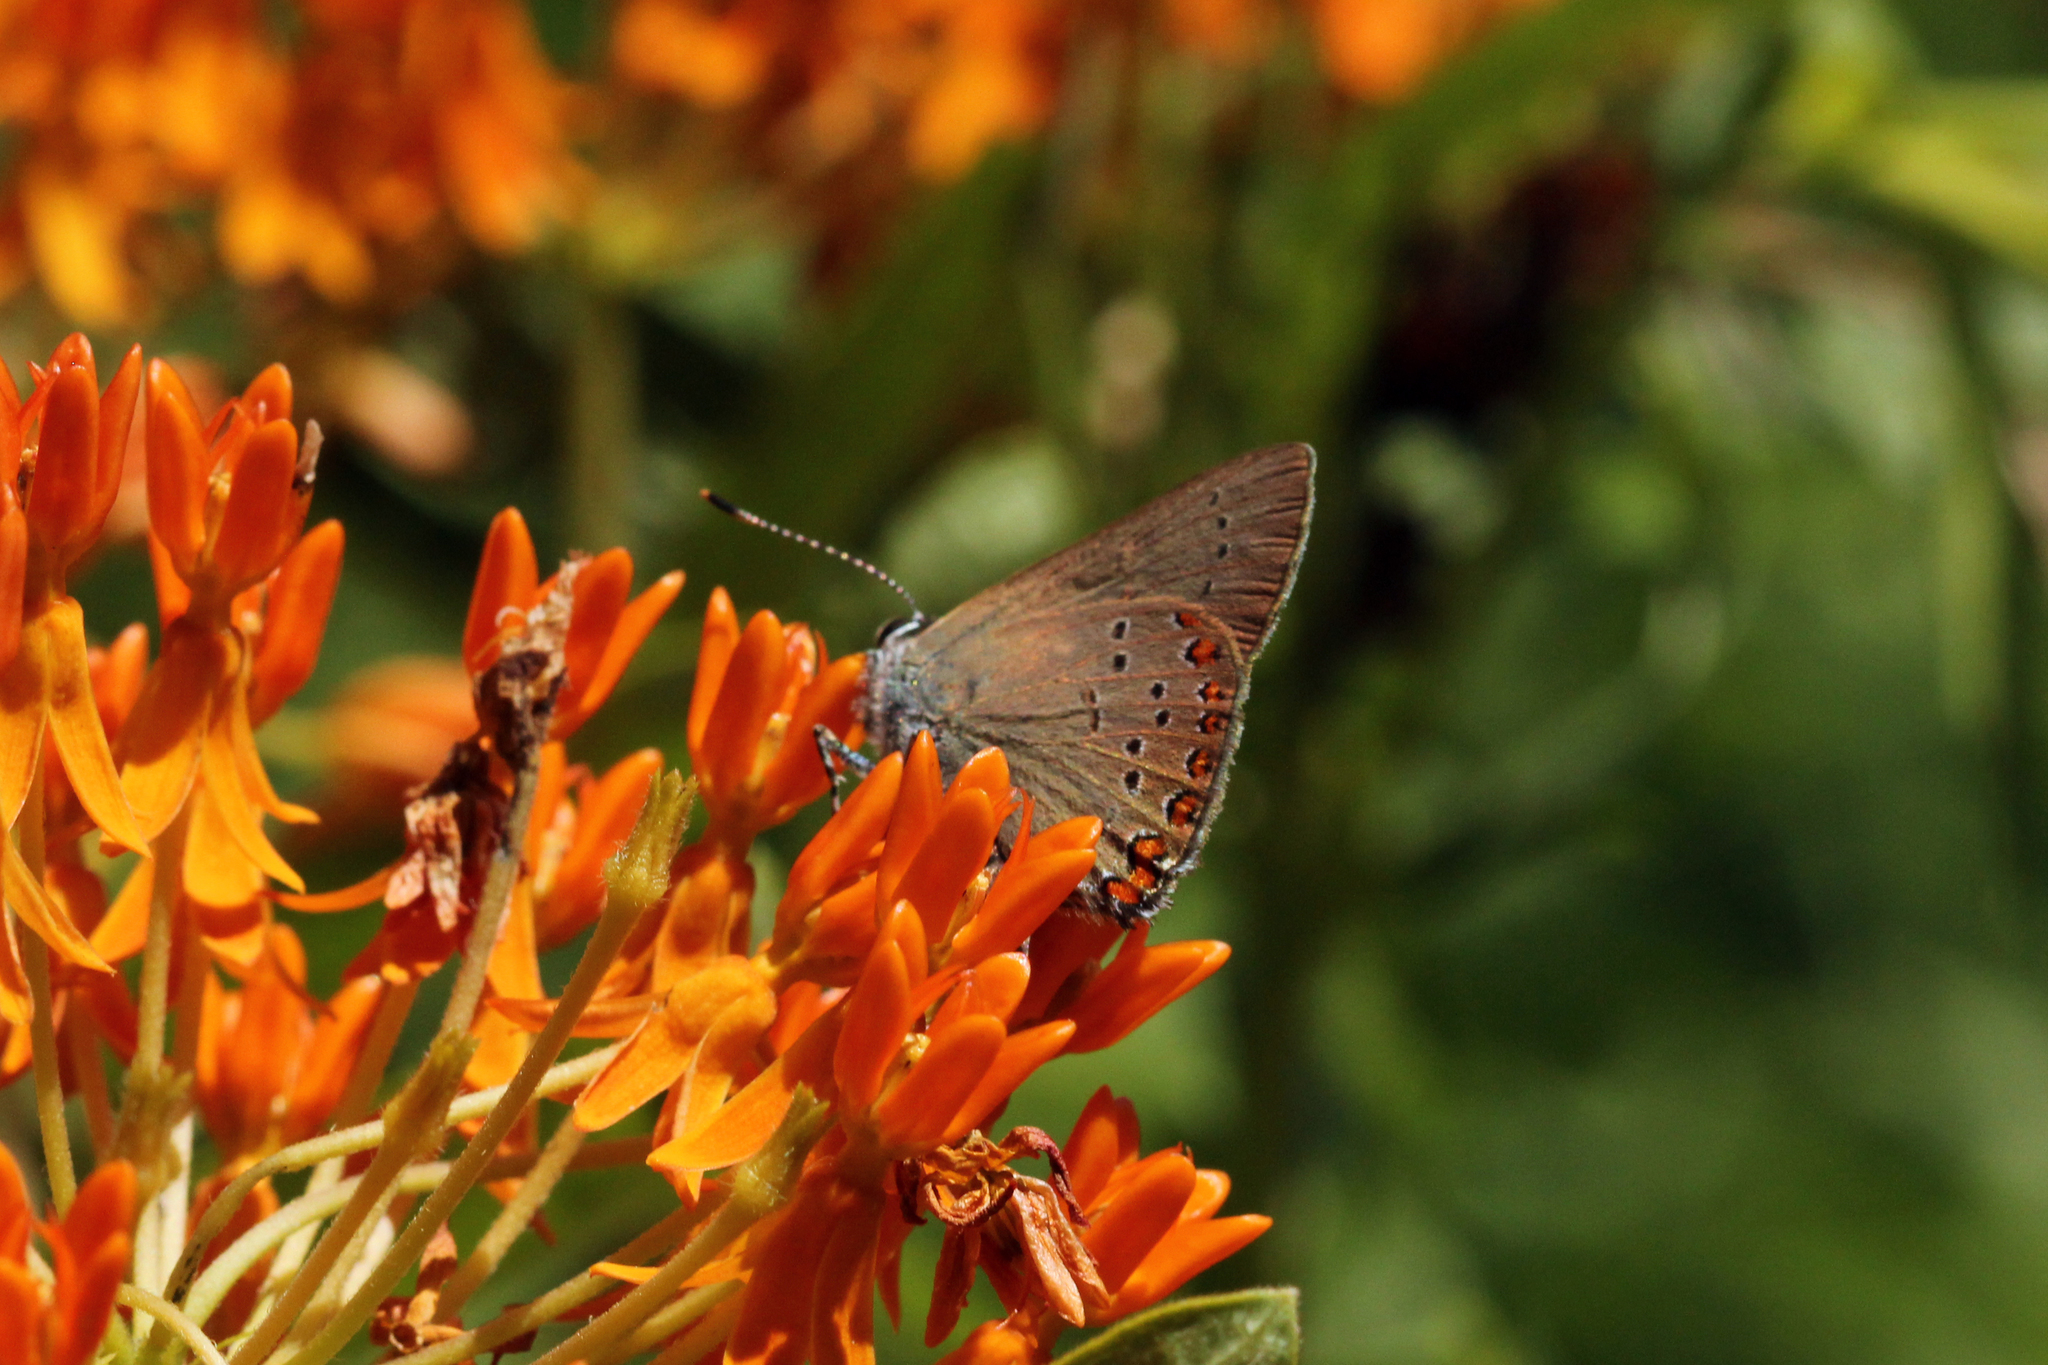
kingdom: Animalia
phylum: Arthropoda
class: Insecta
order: Lepidoptera
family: Lycaenidae
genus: Harkenclenus
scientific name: Harkenclenus titus
